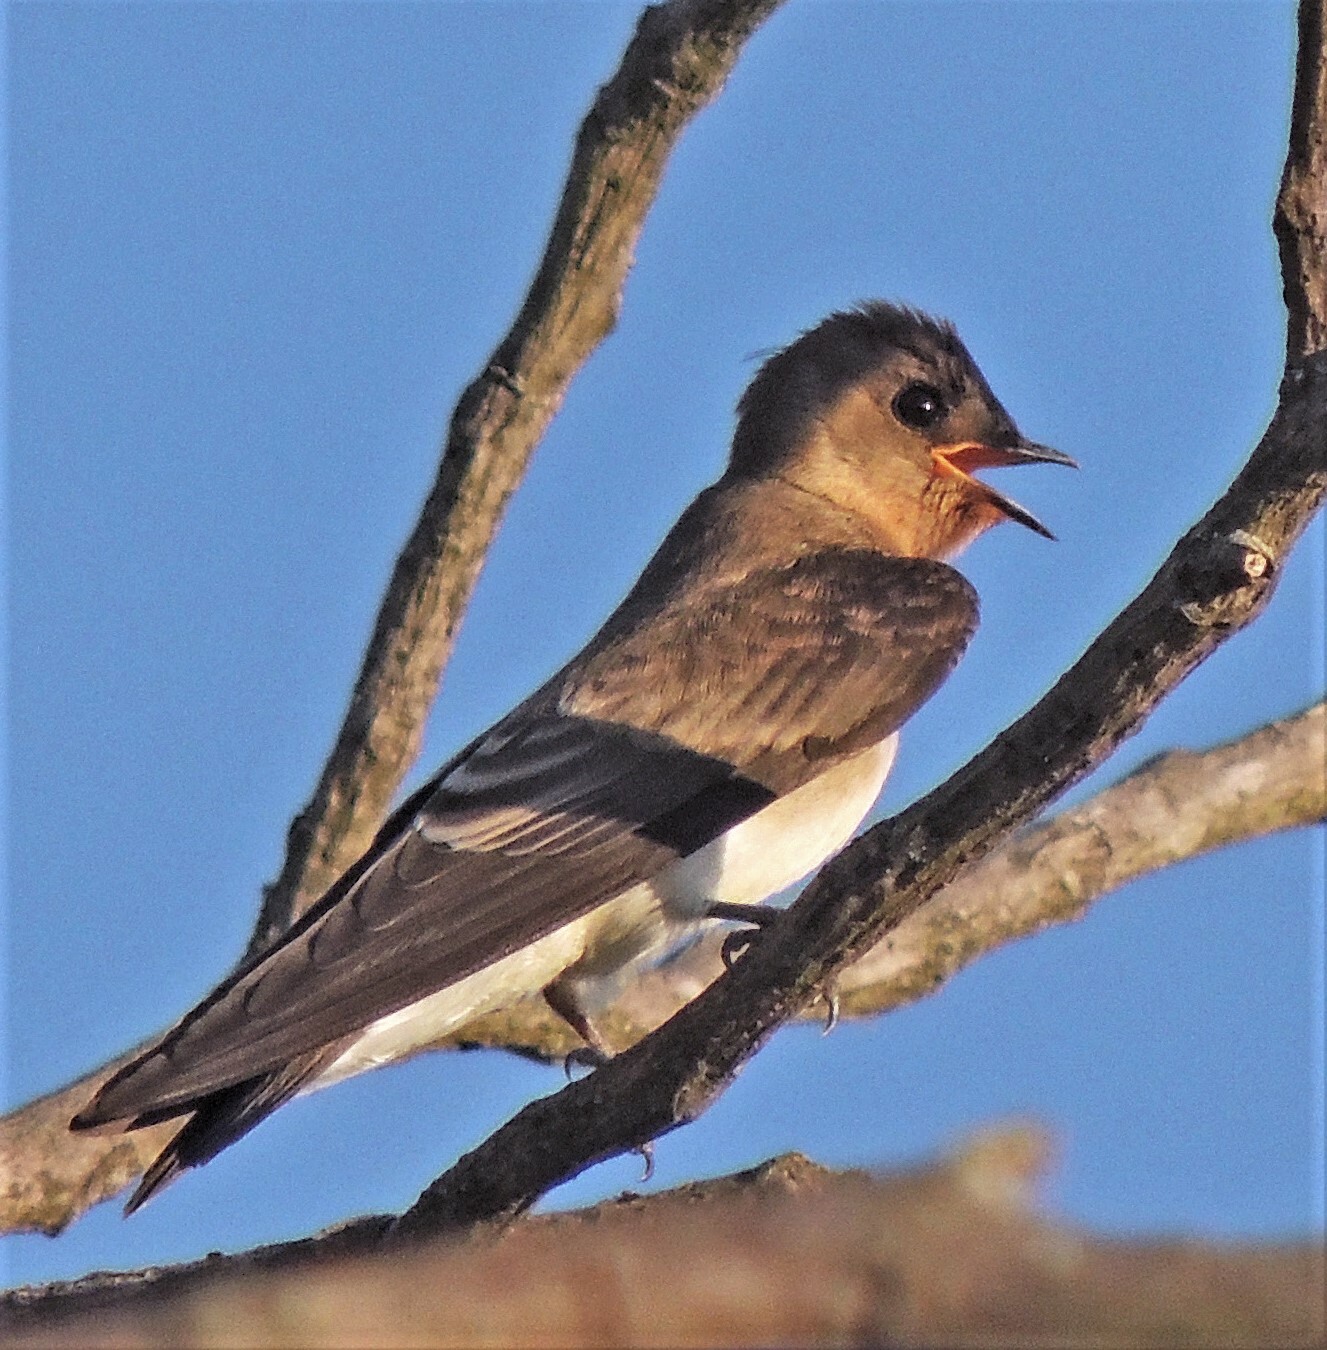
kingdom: Animalia
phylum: Chordata
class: Aves
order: Passeriformes
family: Hirundinidae
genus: Stelgidopteryx
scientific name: Stelgidopteryx ruficollis
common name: Southern rough-winged swallow
